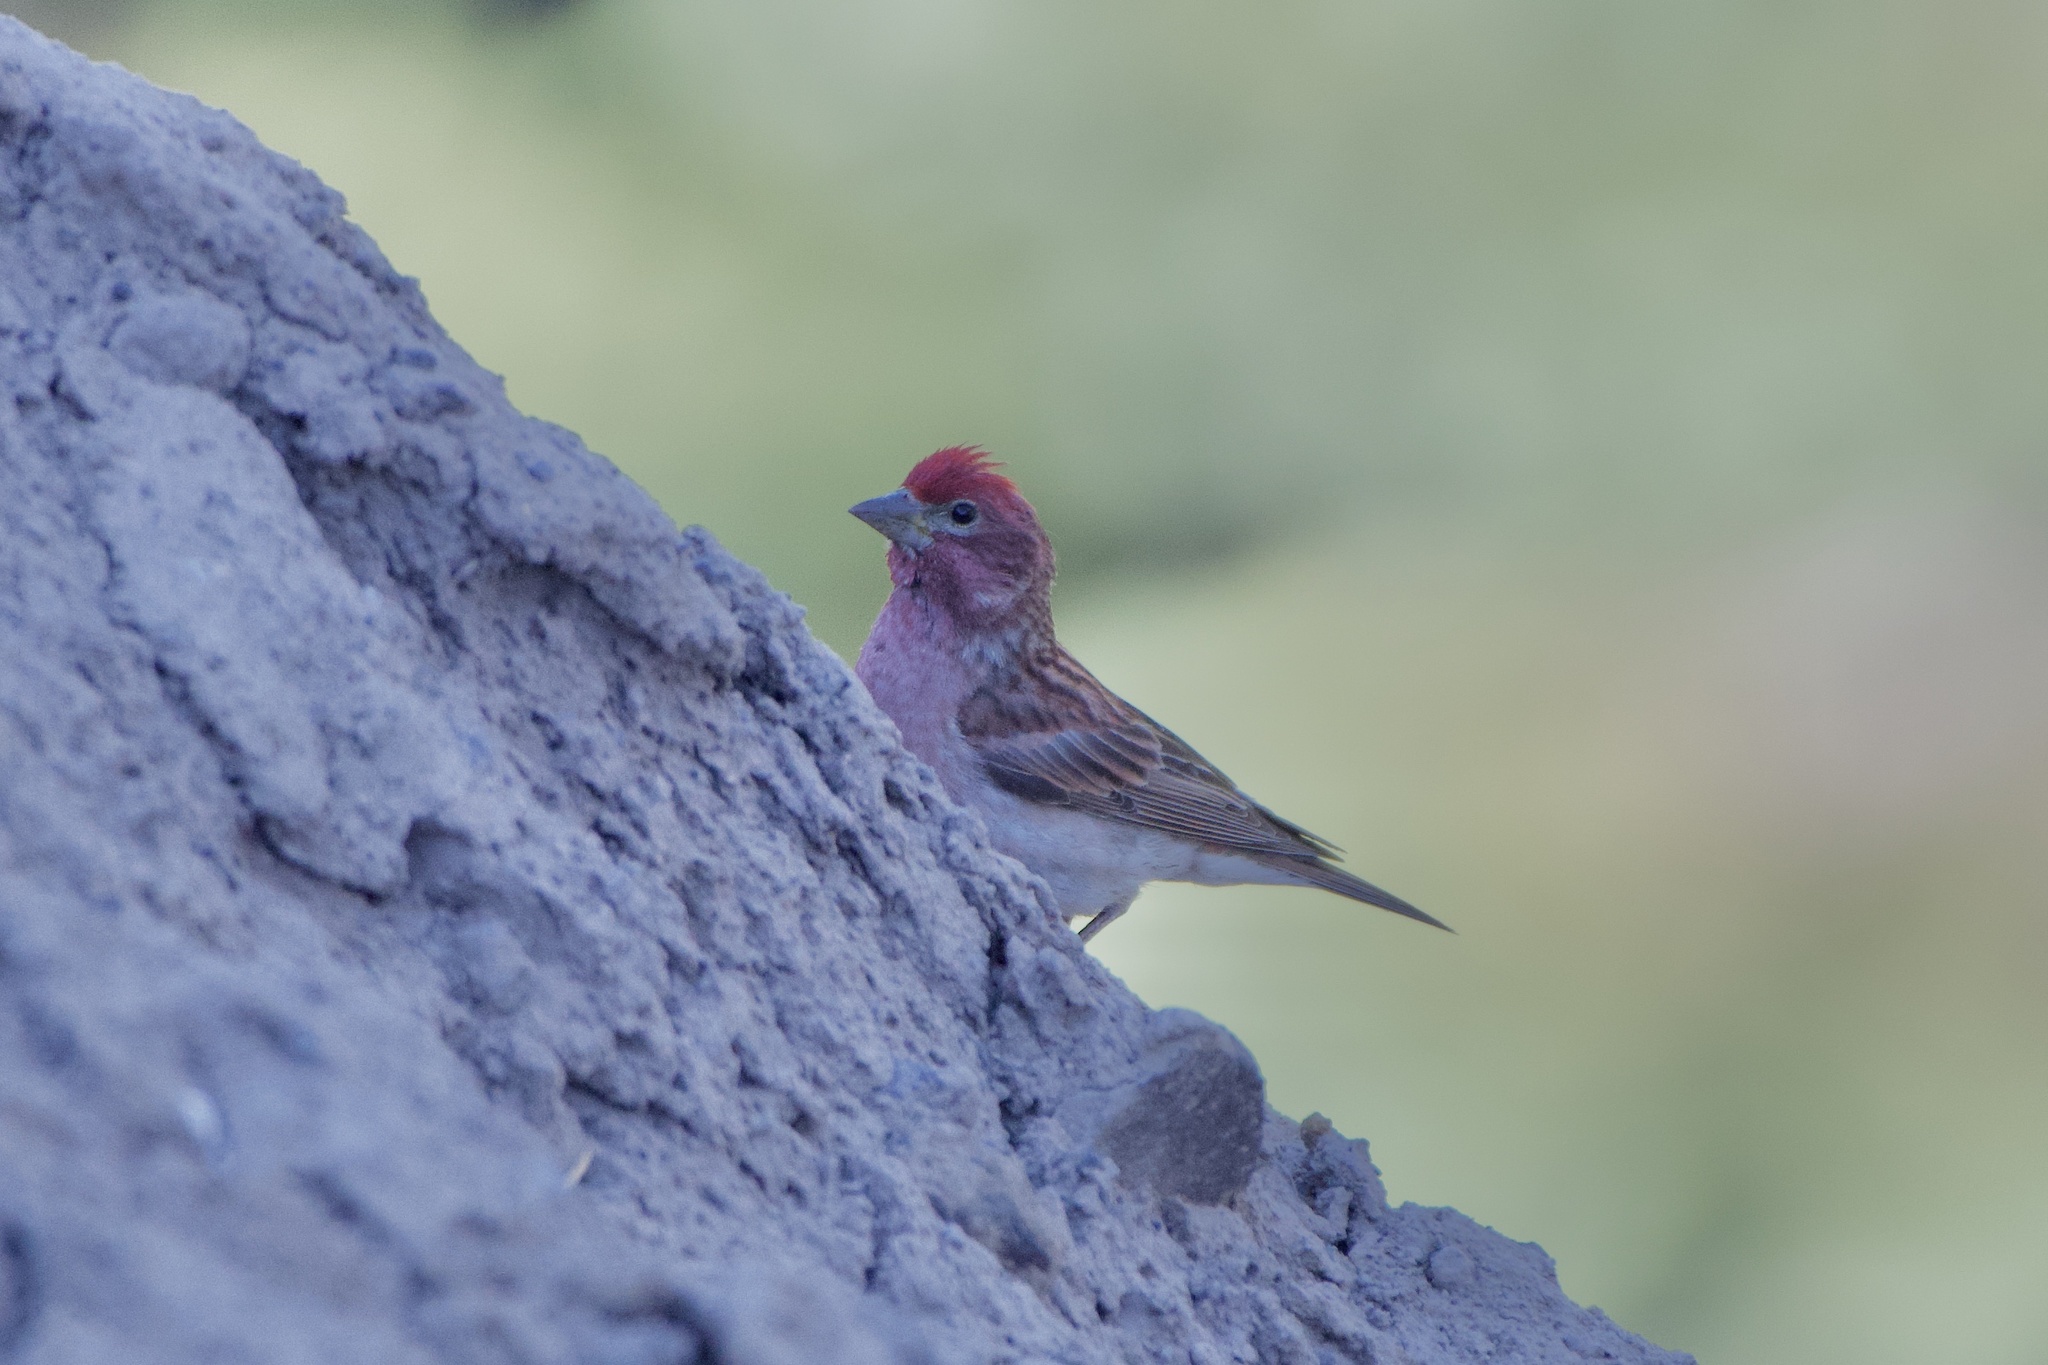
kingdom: Animalia
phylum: Chordata
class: Aves
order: Passeriformes
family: Fringillidae
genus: Haemorhous
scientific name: Haemorhous cassinii
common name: Cassin's finch
